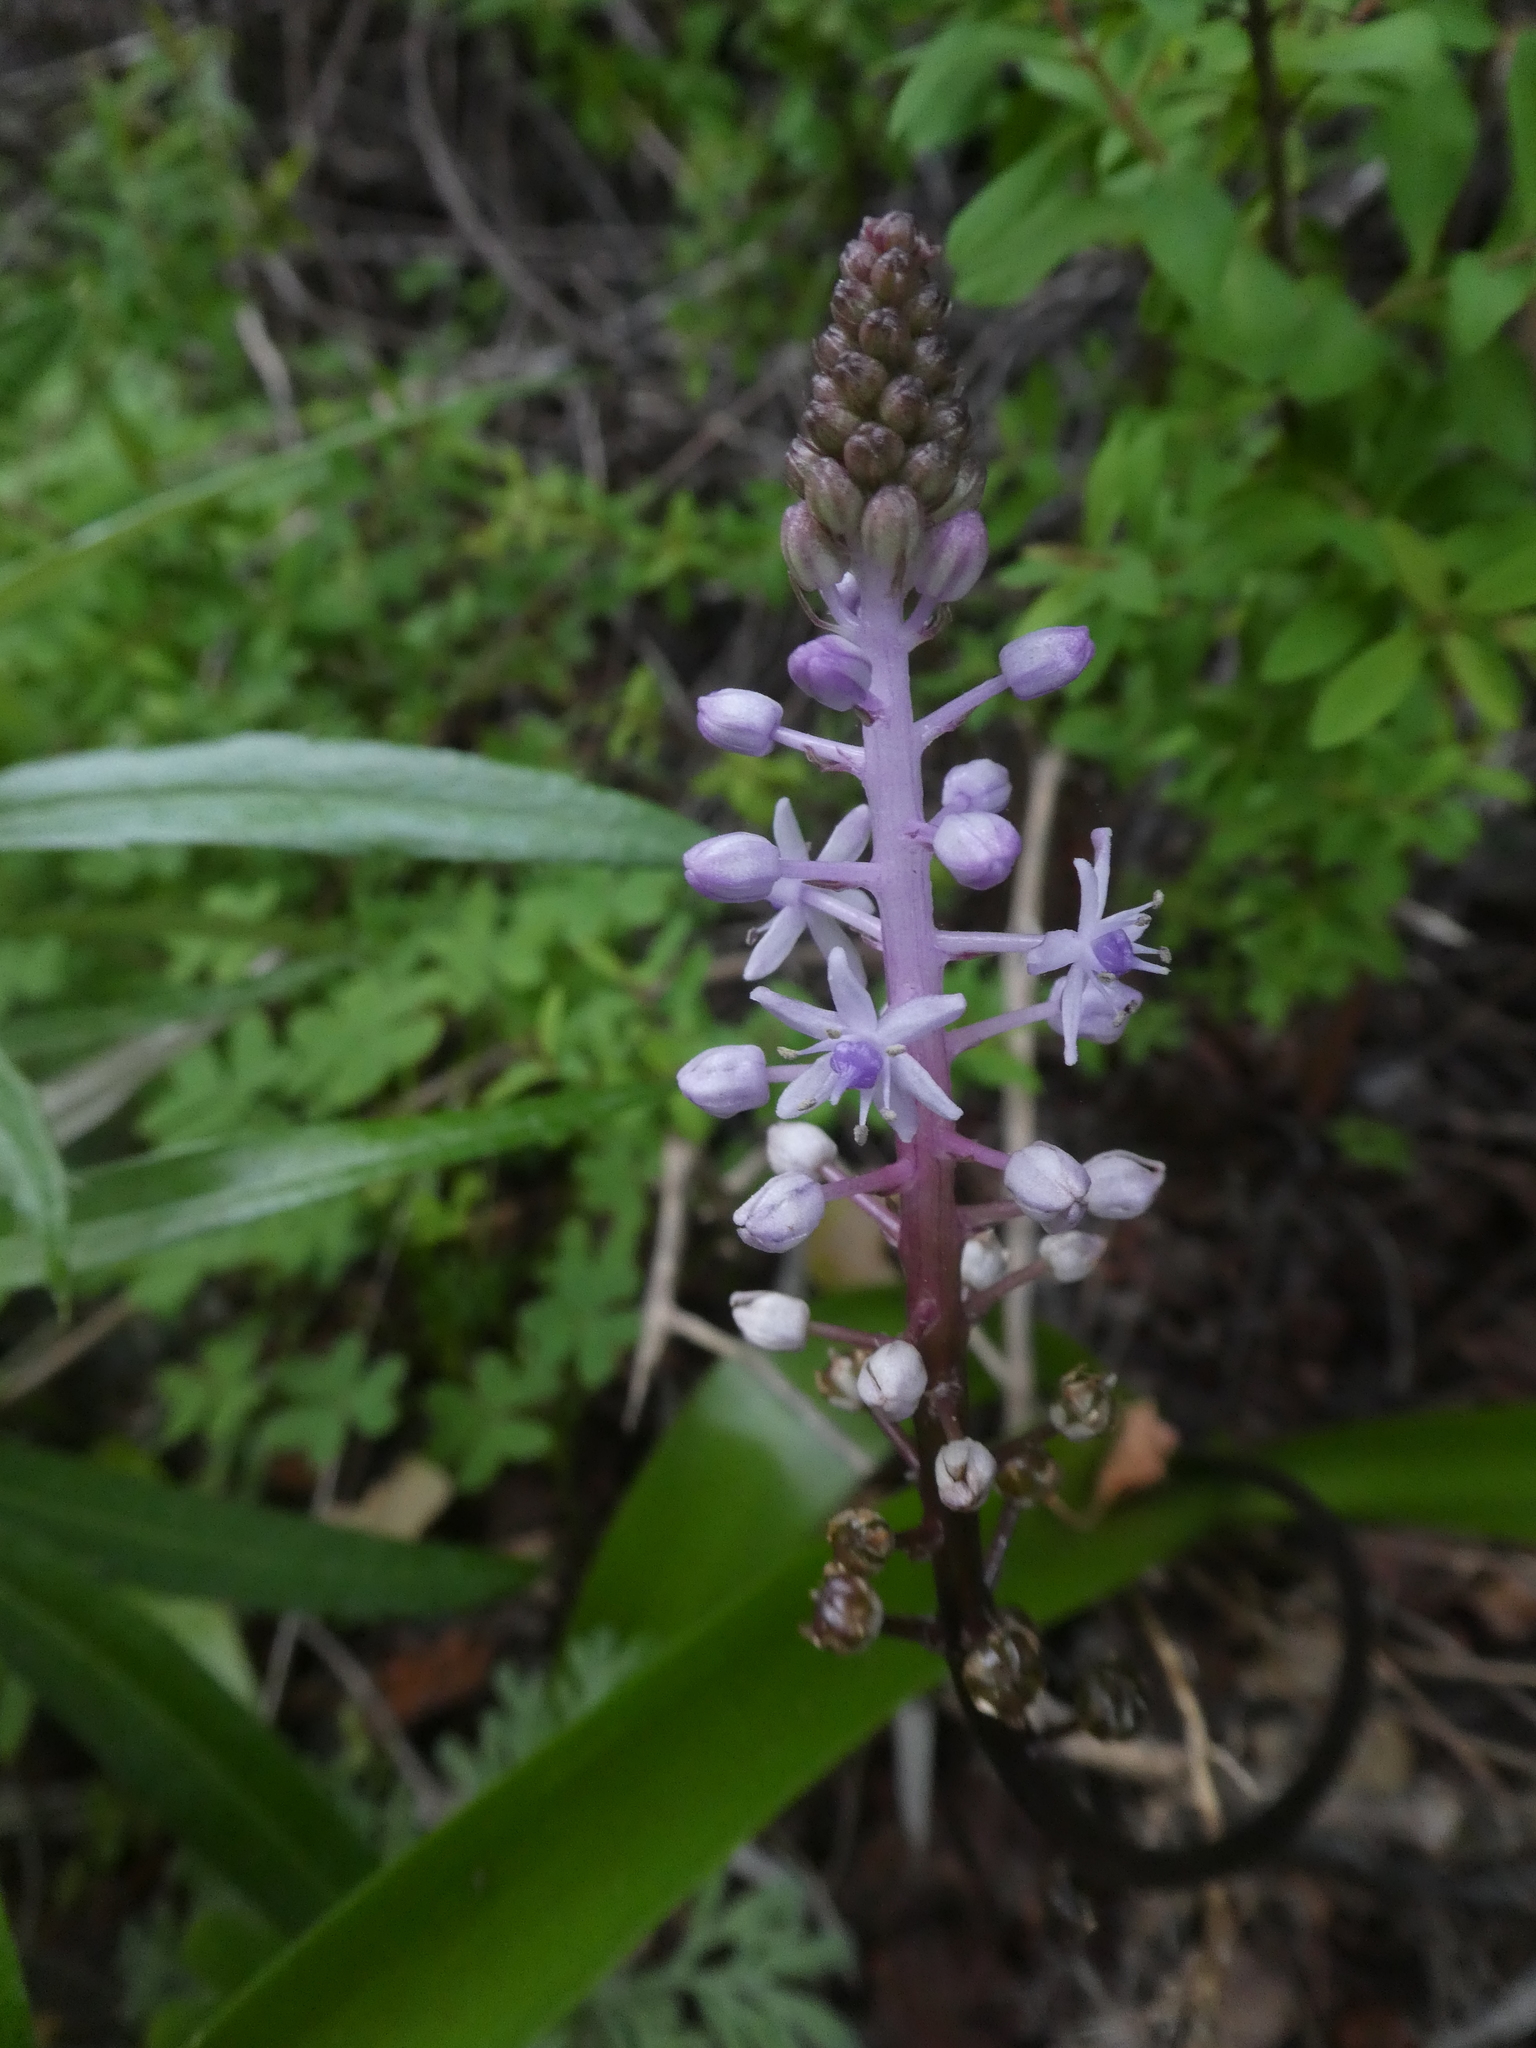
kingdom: Plantae
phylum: Tracheophyta
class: Liliopsida
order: Asparagales
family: Asparagaceae
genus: Scilla
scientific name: Scilla haemorrhoidalis
